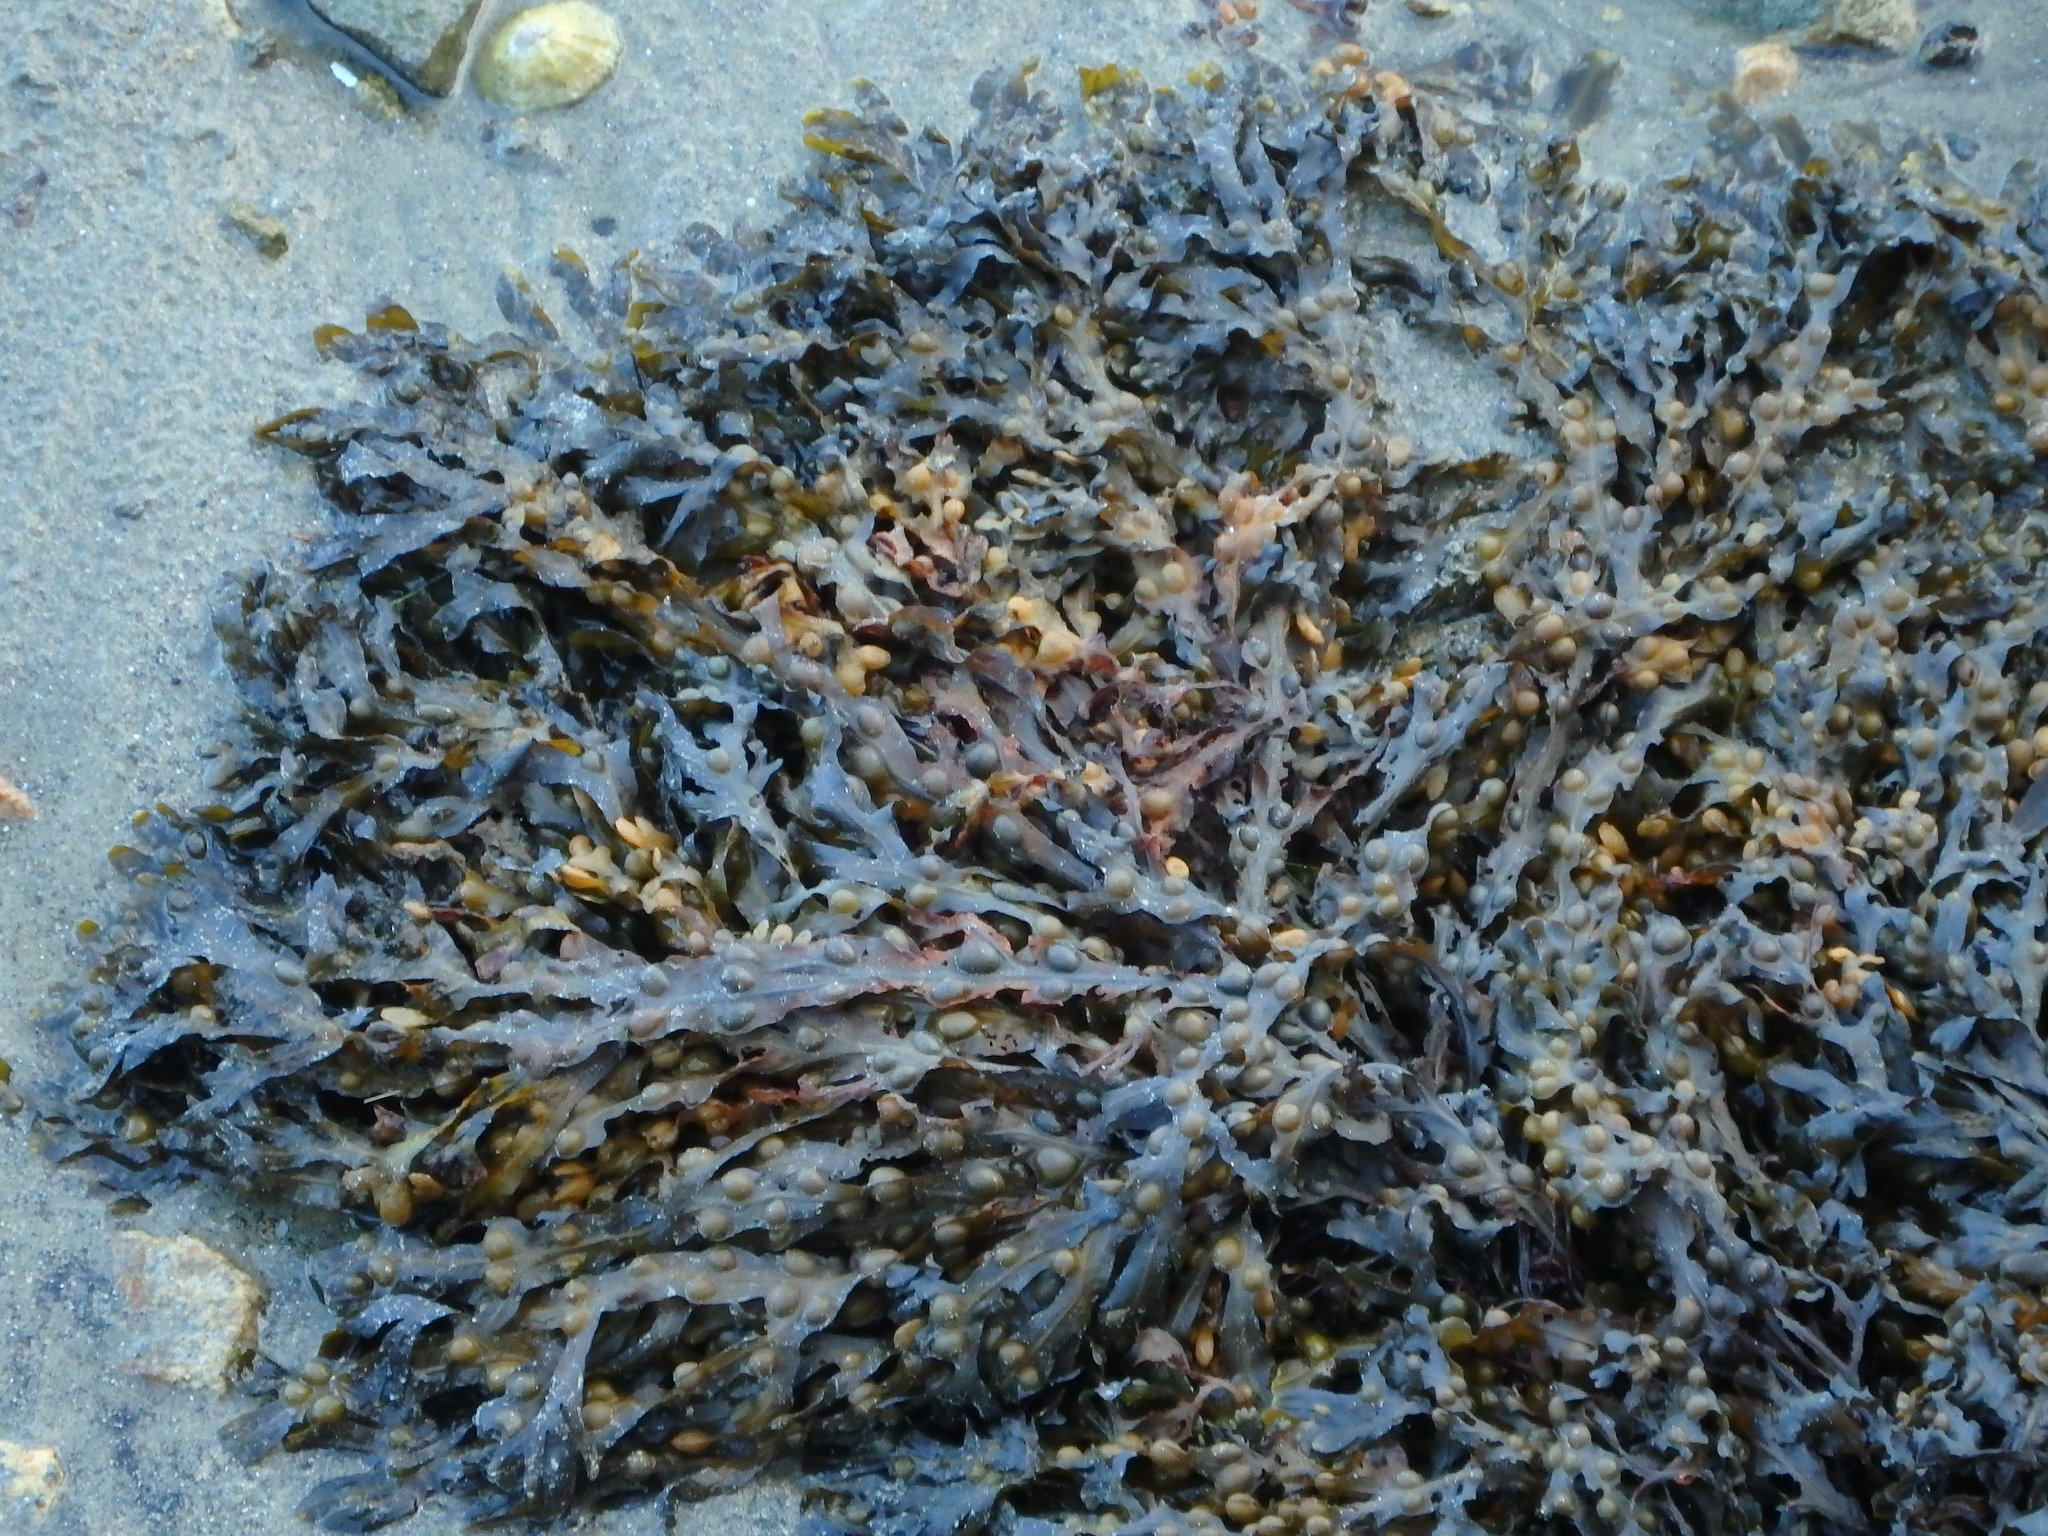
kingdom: Chromista
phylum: Ochrophyta
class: Phaeophyceae
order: Fucales
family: Fucaceae
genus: Fucus
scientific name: Fucus vesiculosus
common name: Bladder wrack
